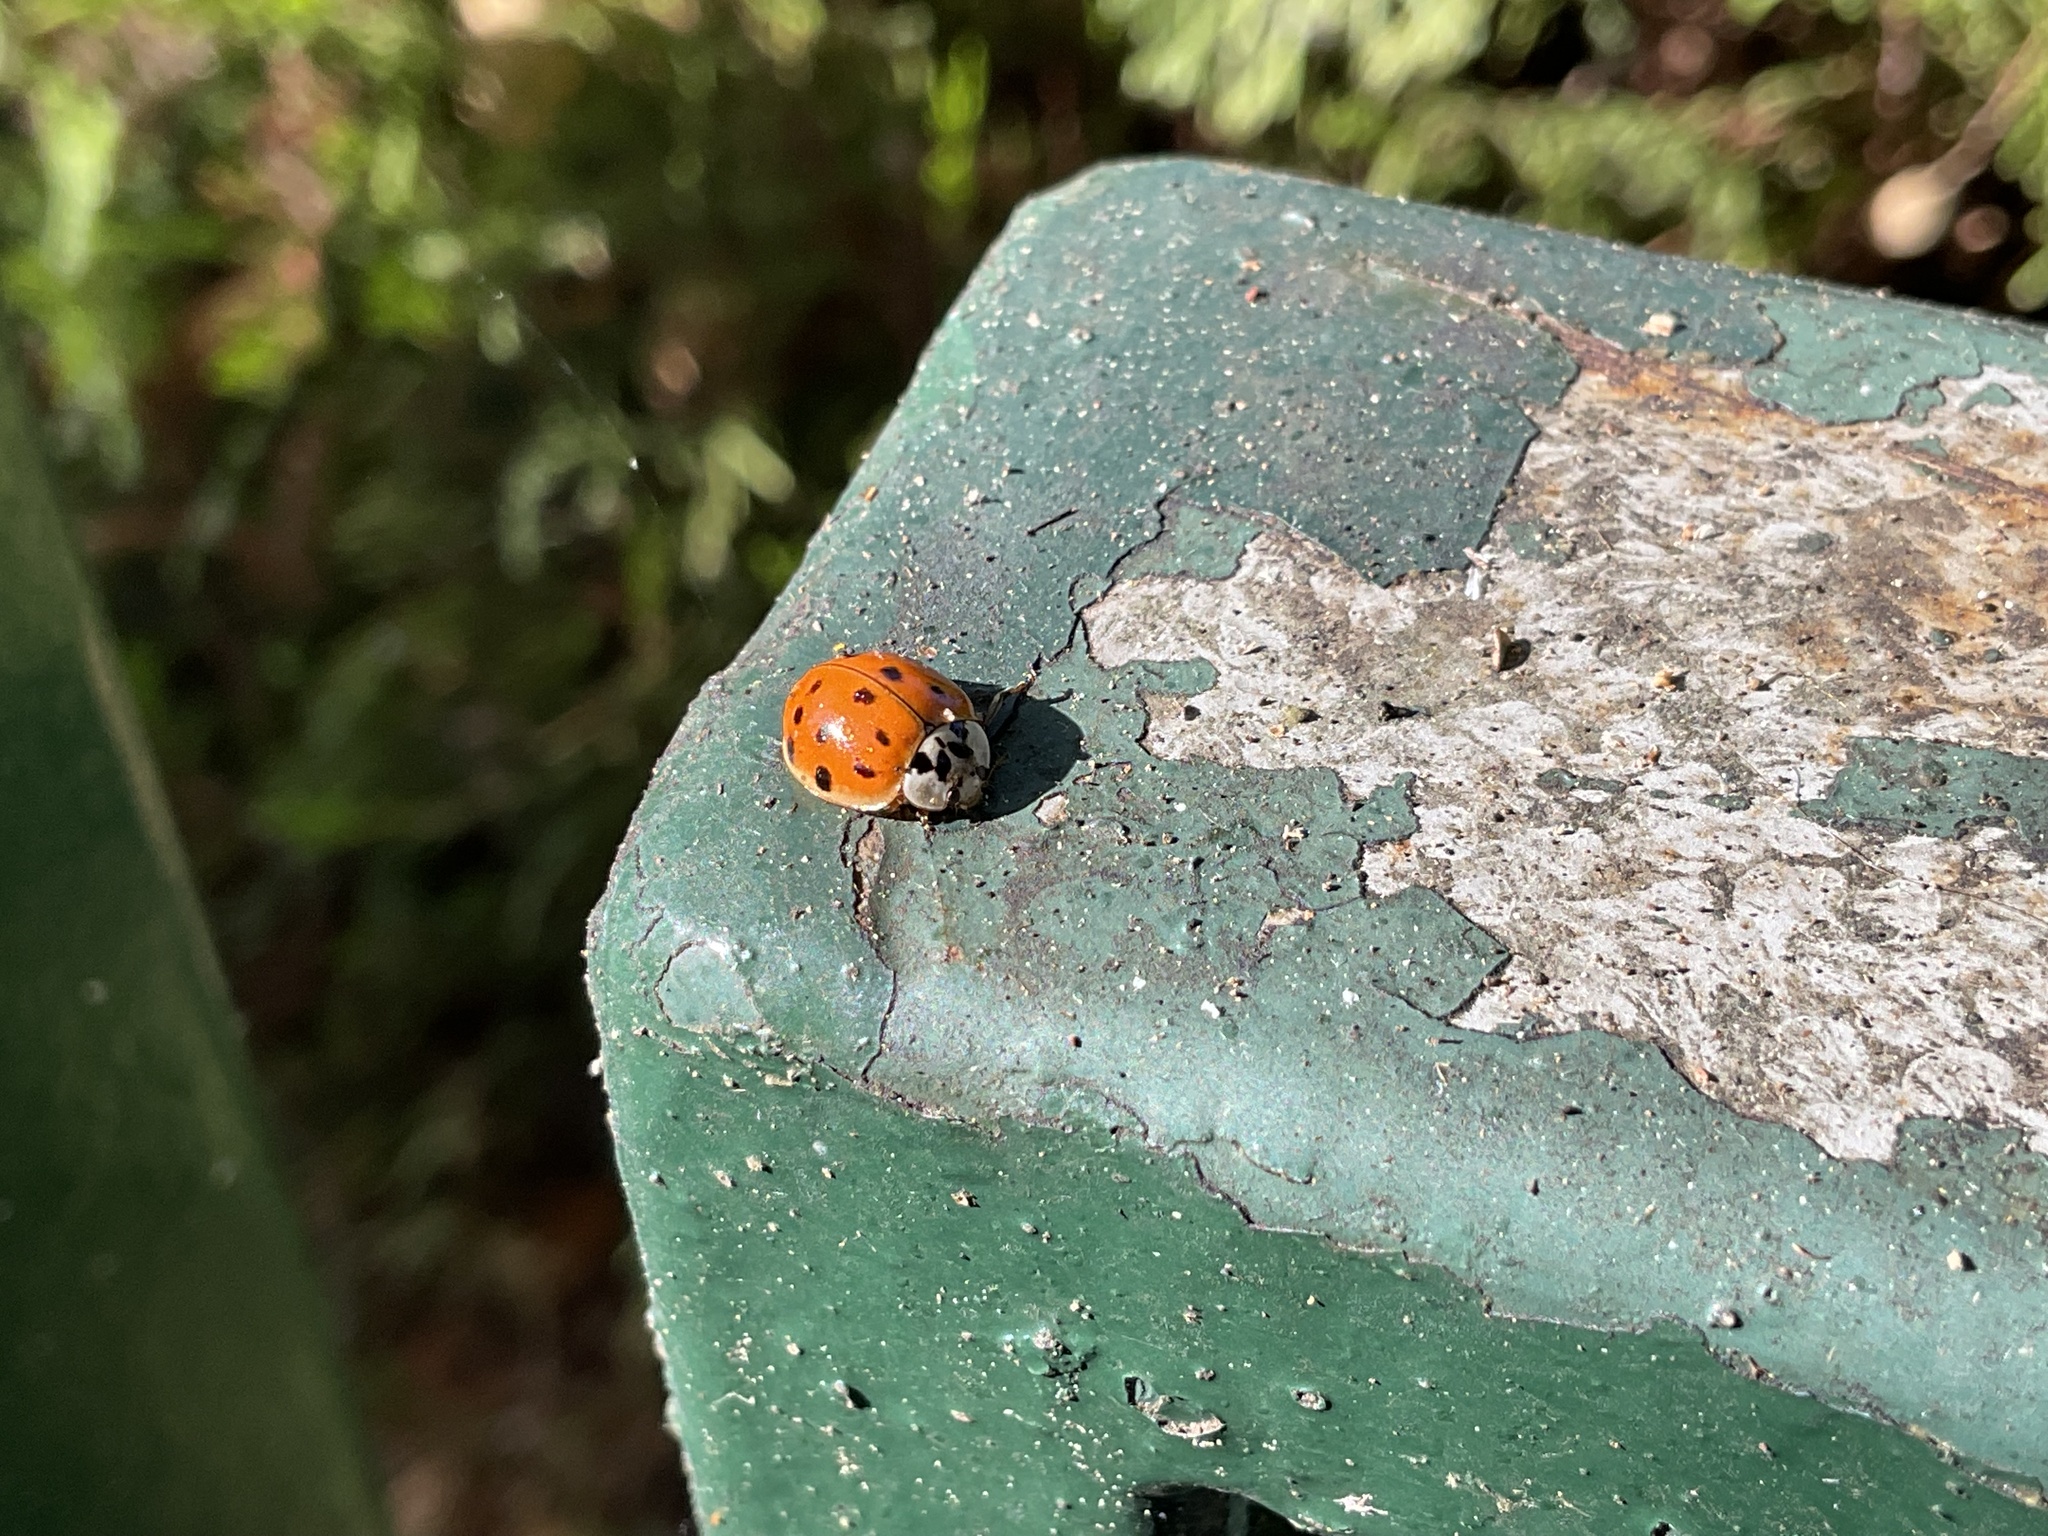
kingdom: Animalia
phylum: Arthropoda
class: Insecta
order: Coleoptera
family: Coccinellidae
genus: Harmonia
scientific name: Harmonia axyridis
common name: Harlequin ladybird
